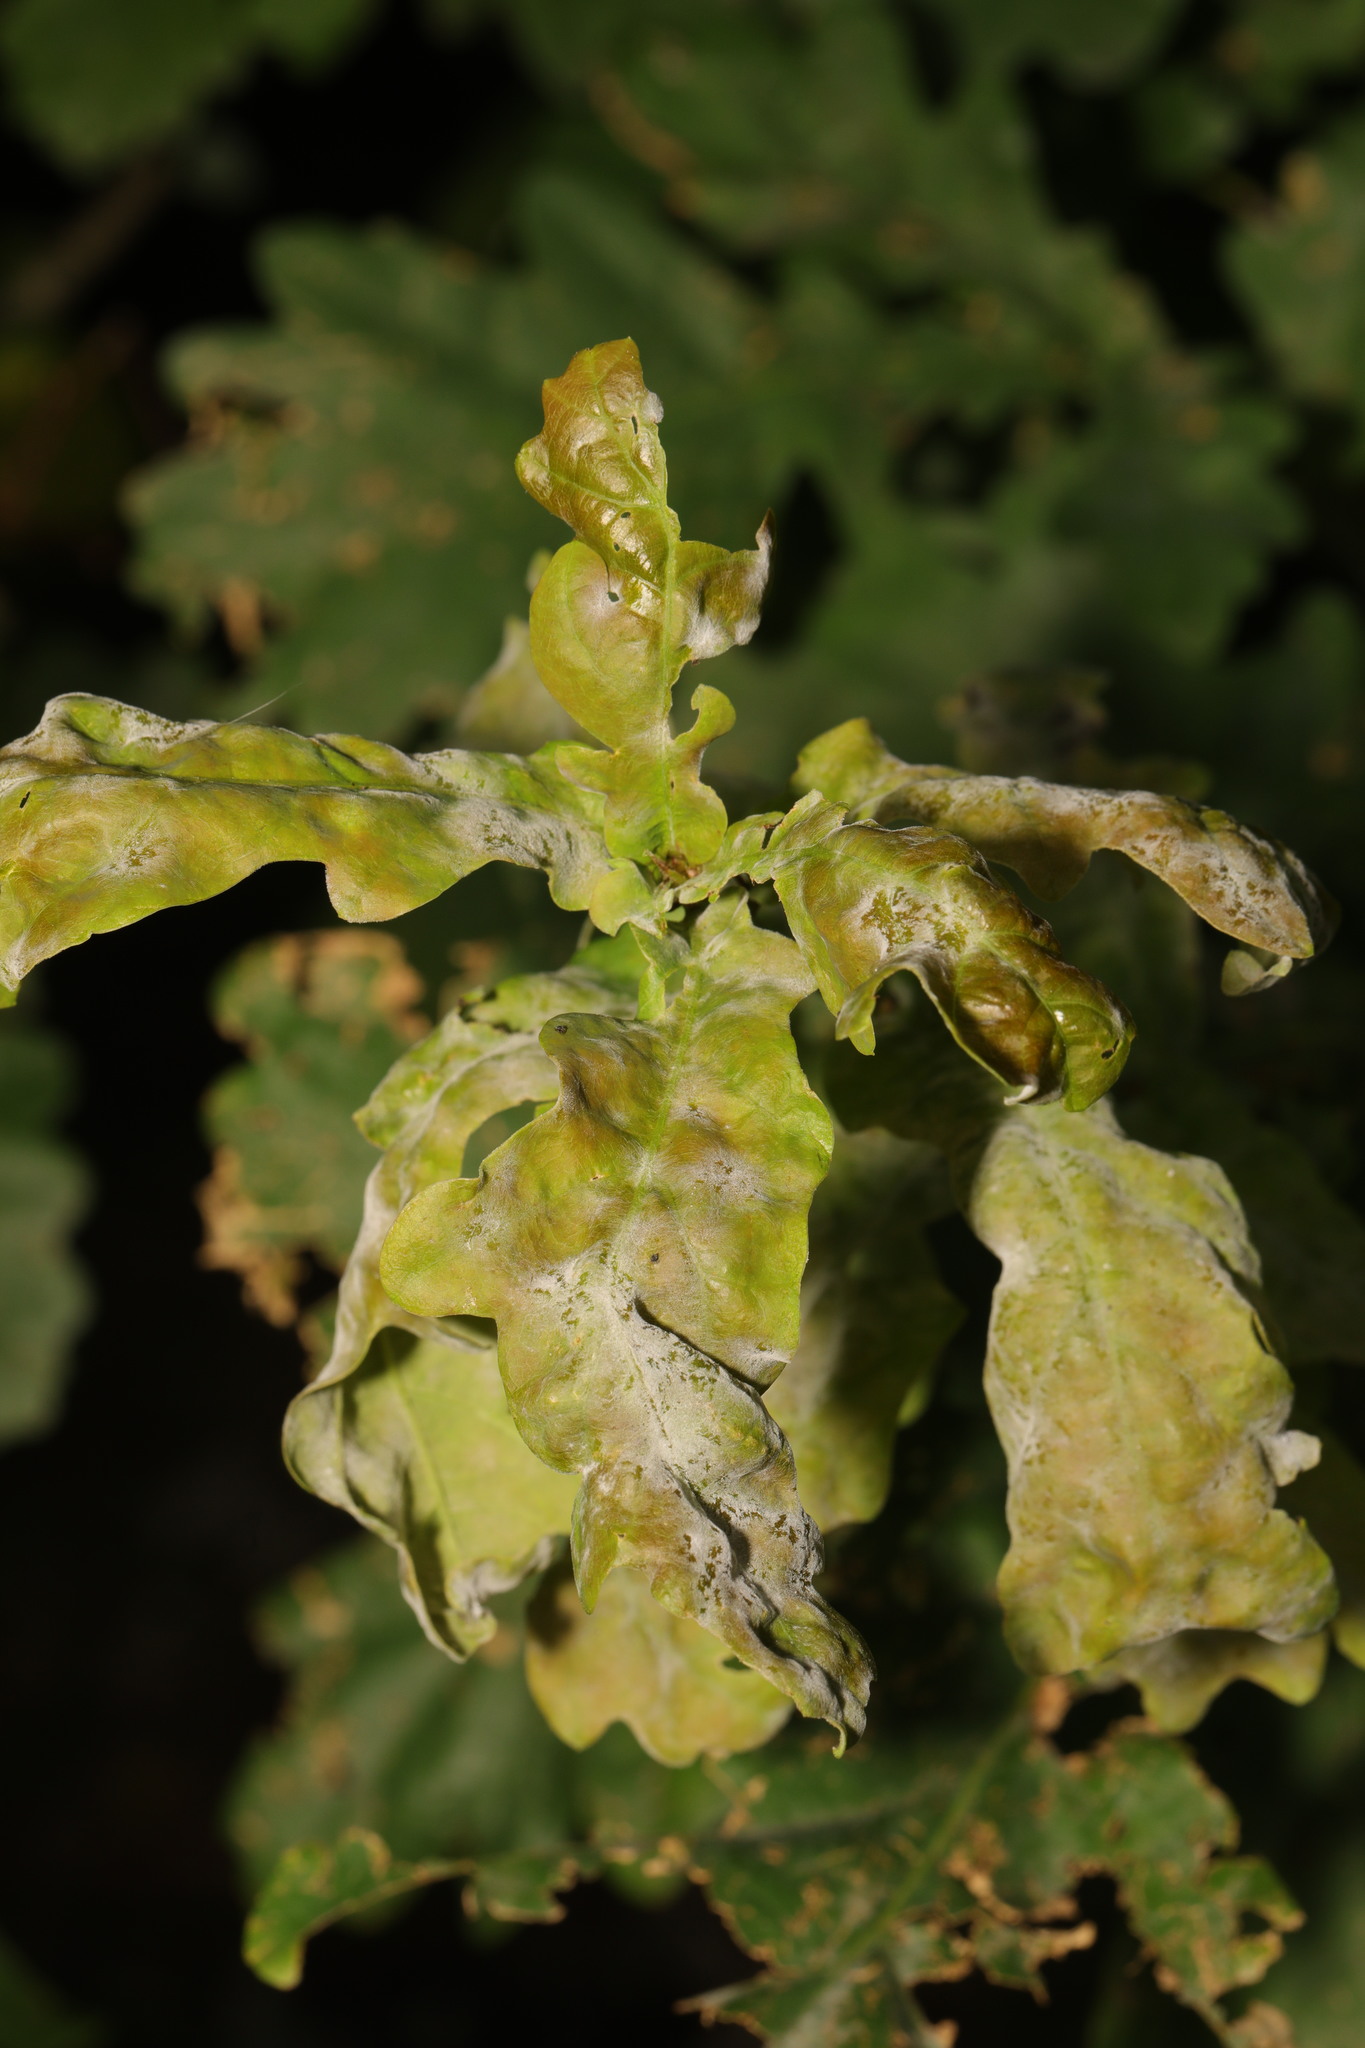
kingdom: Fungi
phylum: Ascomycota
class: Leotiomycetes
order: Helotiales
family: Erysiphaceae
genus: Erysiphe
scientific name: Erysiphe alphitoides
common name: Oak mildew
